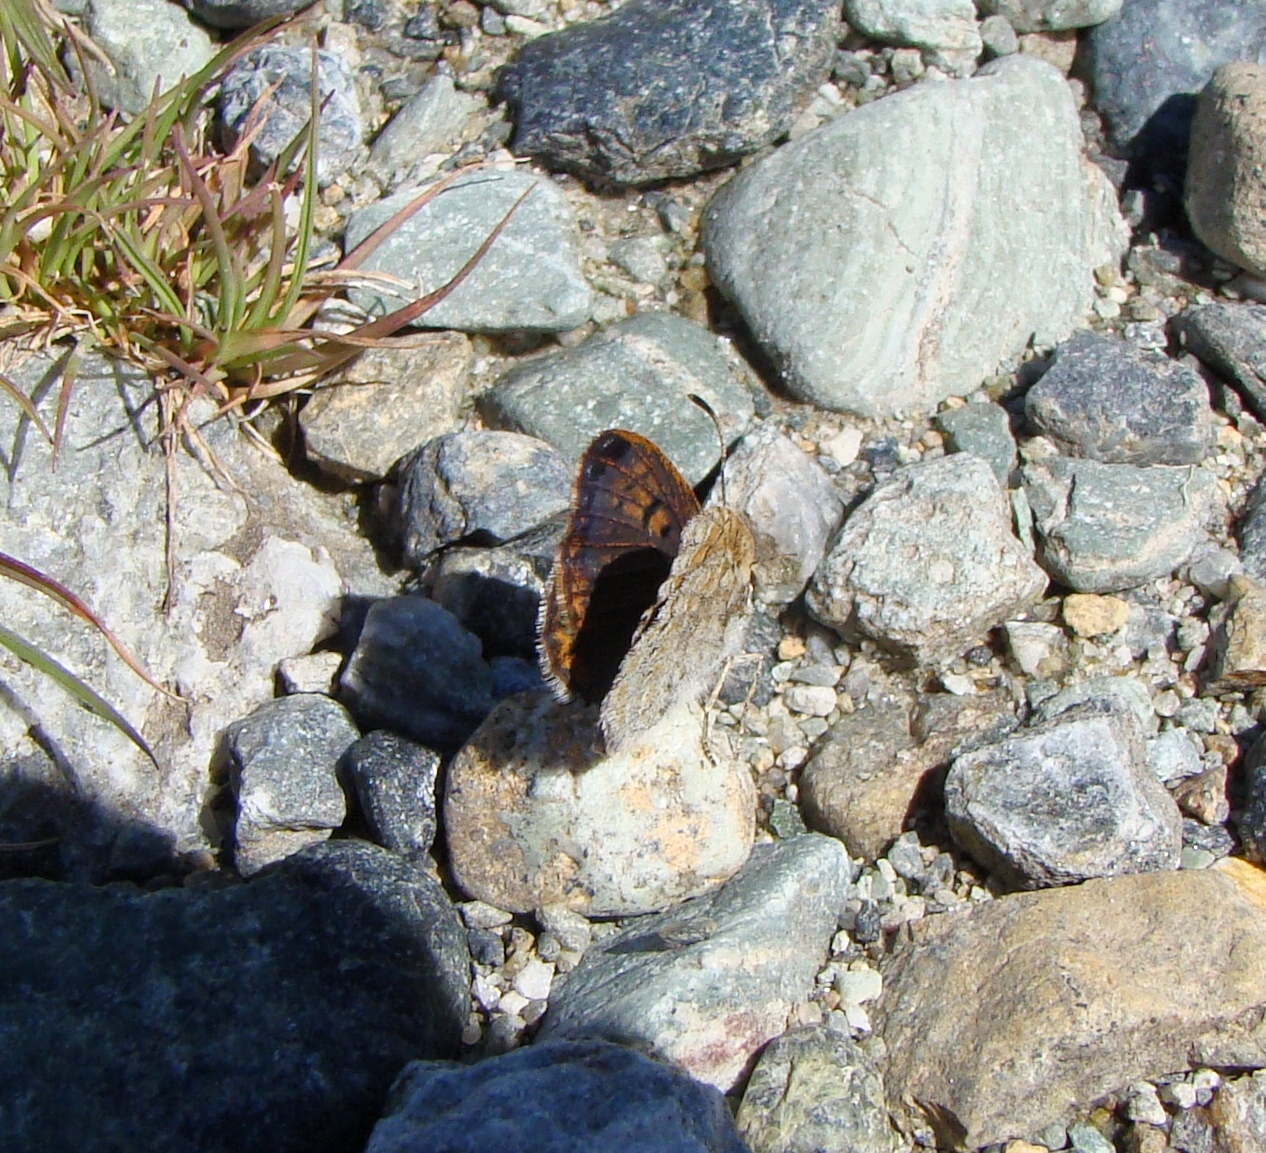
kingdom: Animalia
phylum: Arthropoda
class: Insecta
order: Lepidoptera
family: Lycaenidae
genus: Lycaena
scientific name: Lycaena boldenarum
